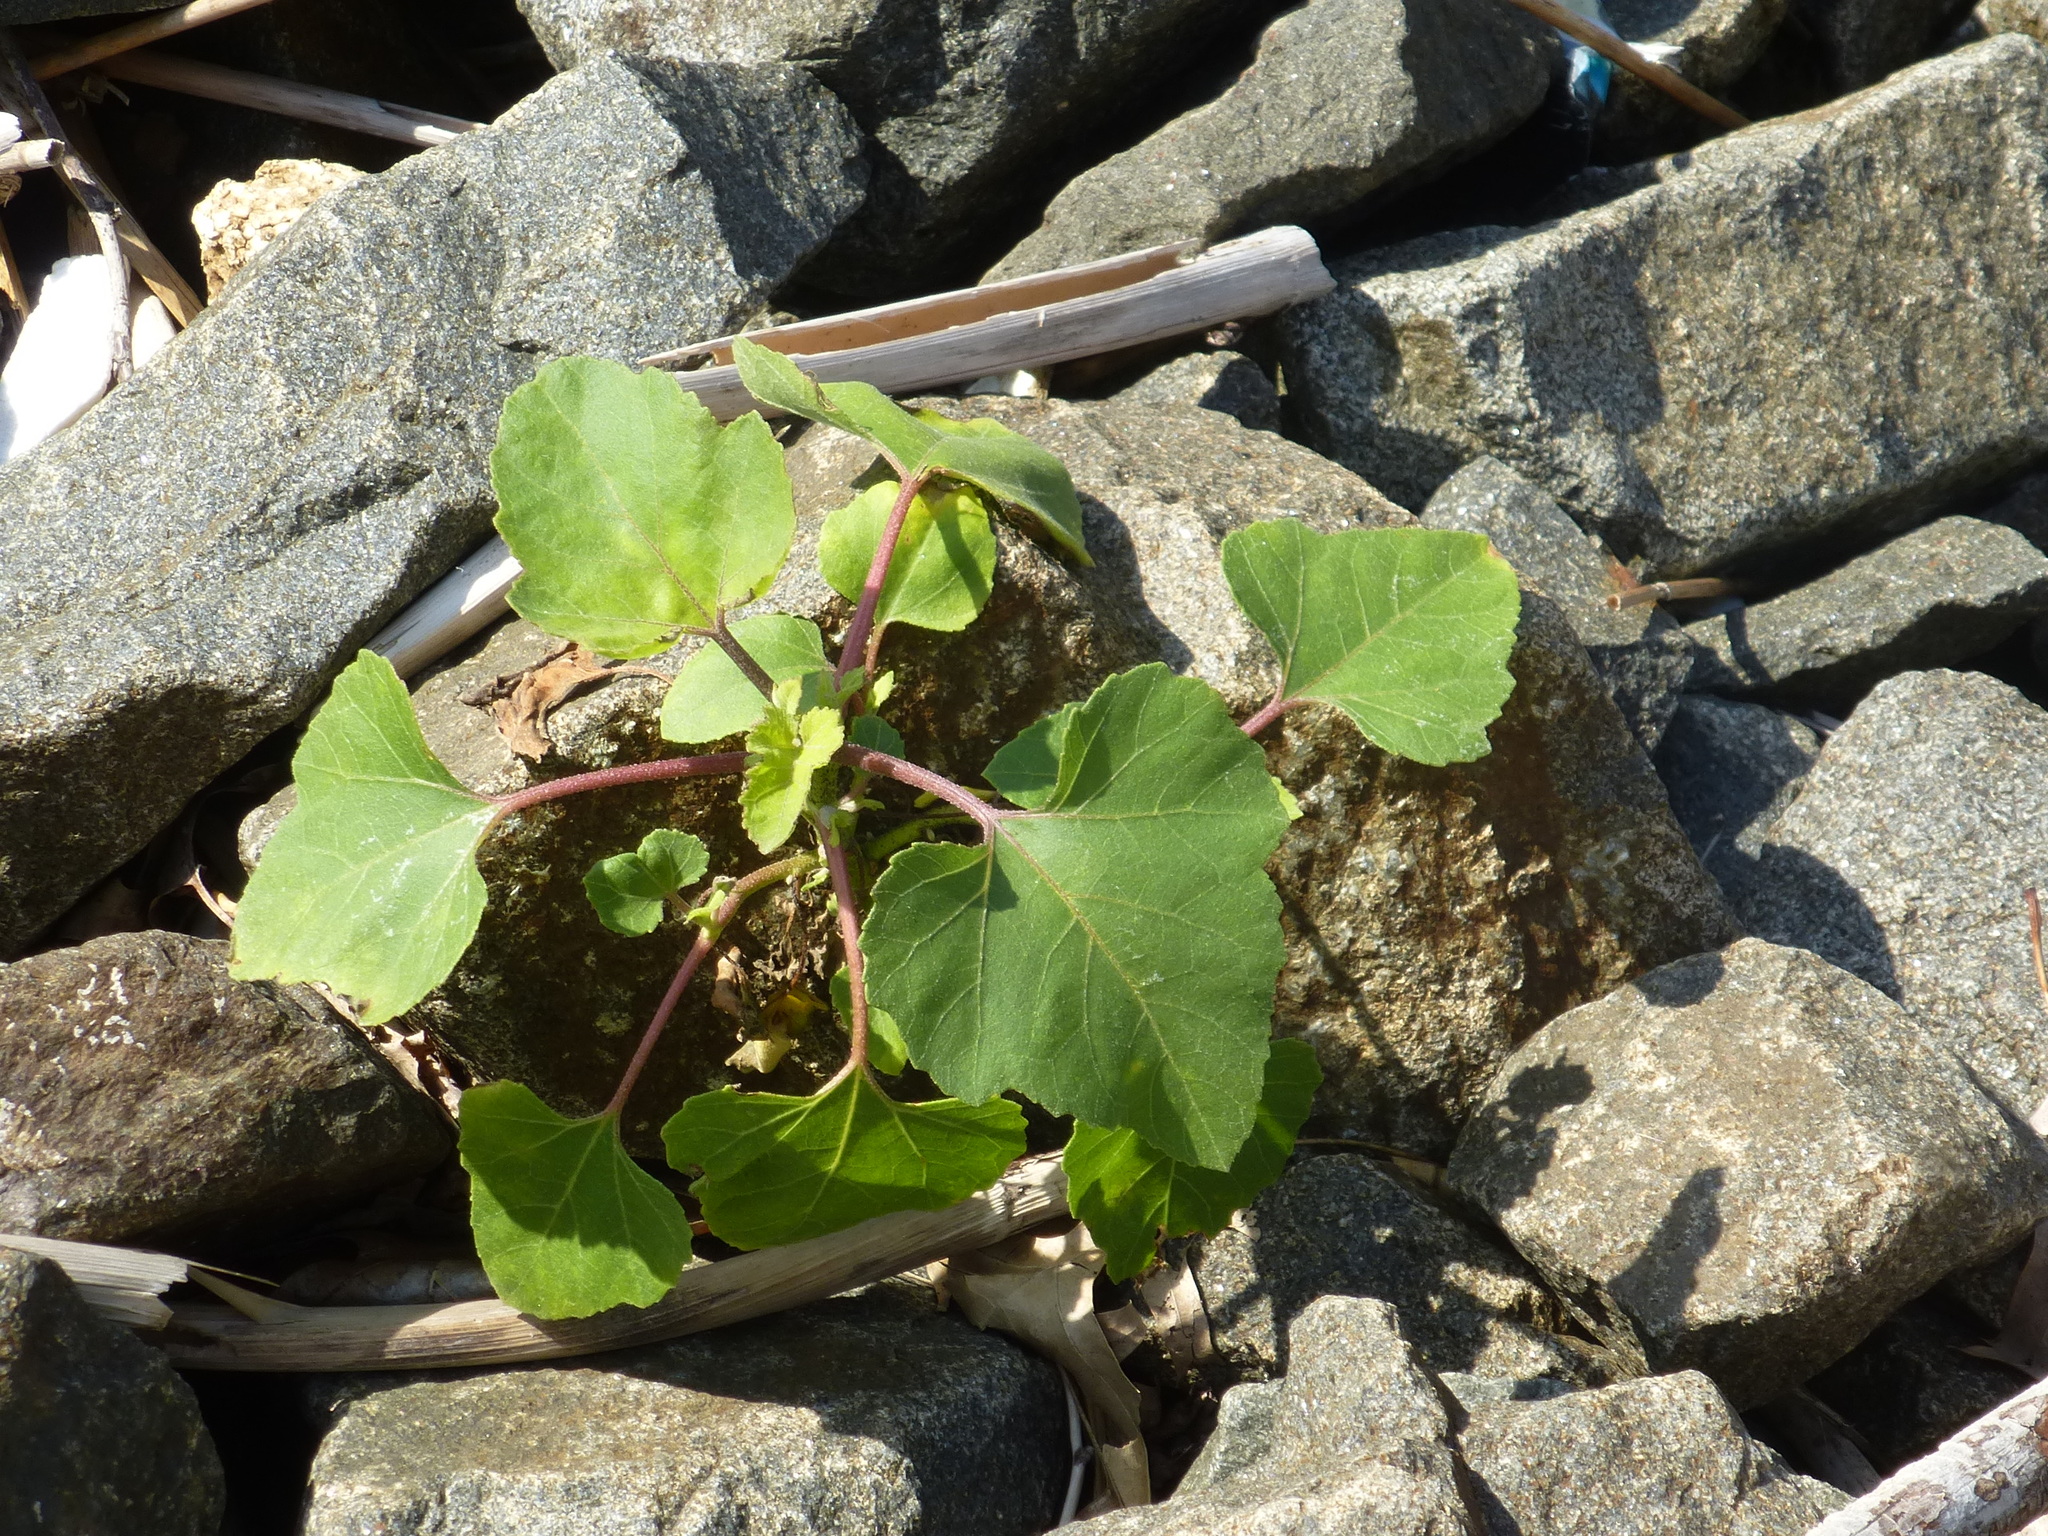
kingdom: Plantae
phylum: Tracheophyta
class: Magnoliopsida
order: Asterales
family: Asteraceae
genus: Xanthium
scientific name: Xanthium strumarium
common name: Rough cocklebur
